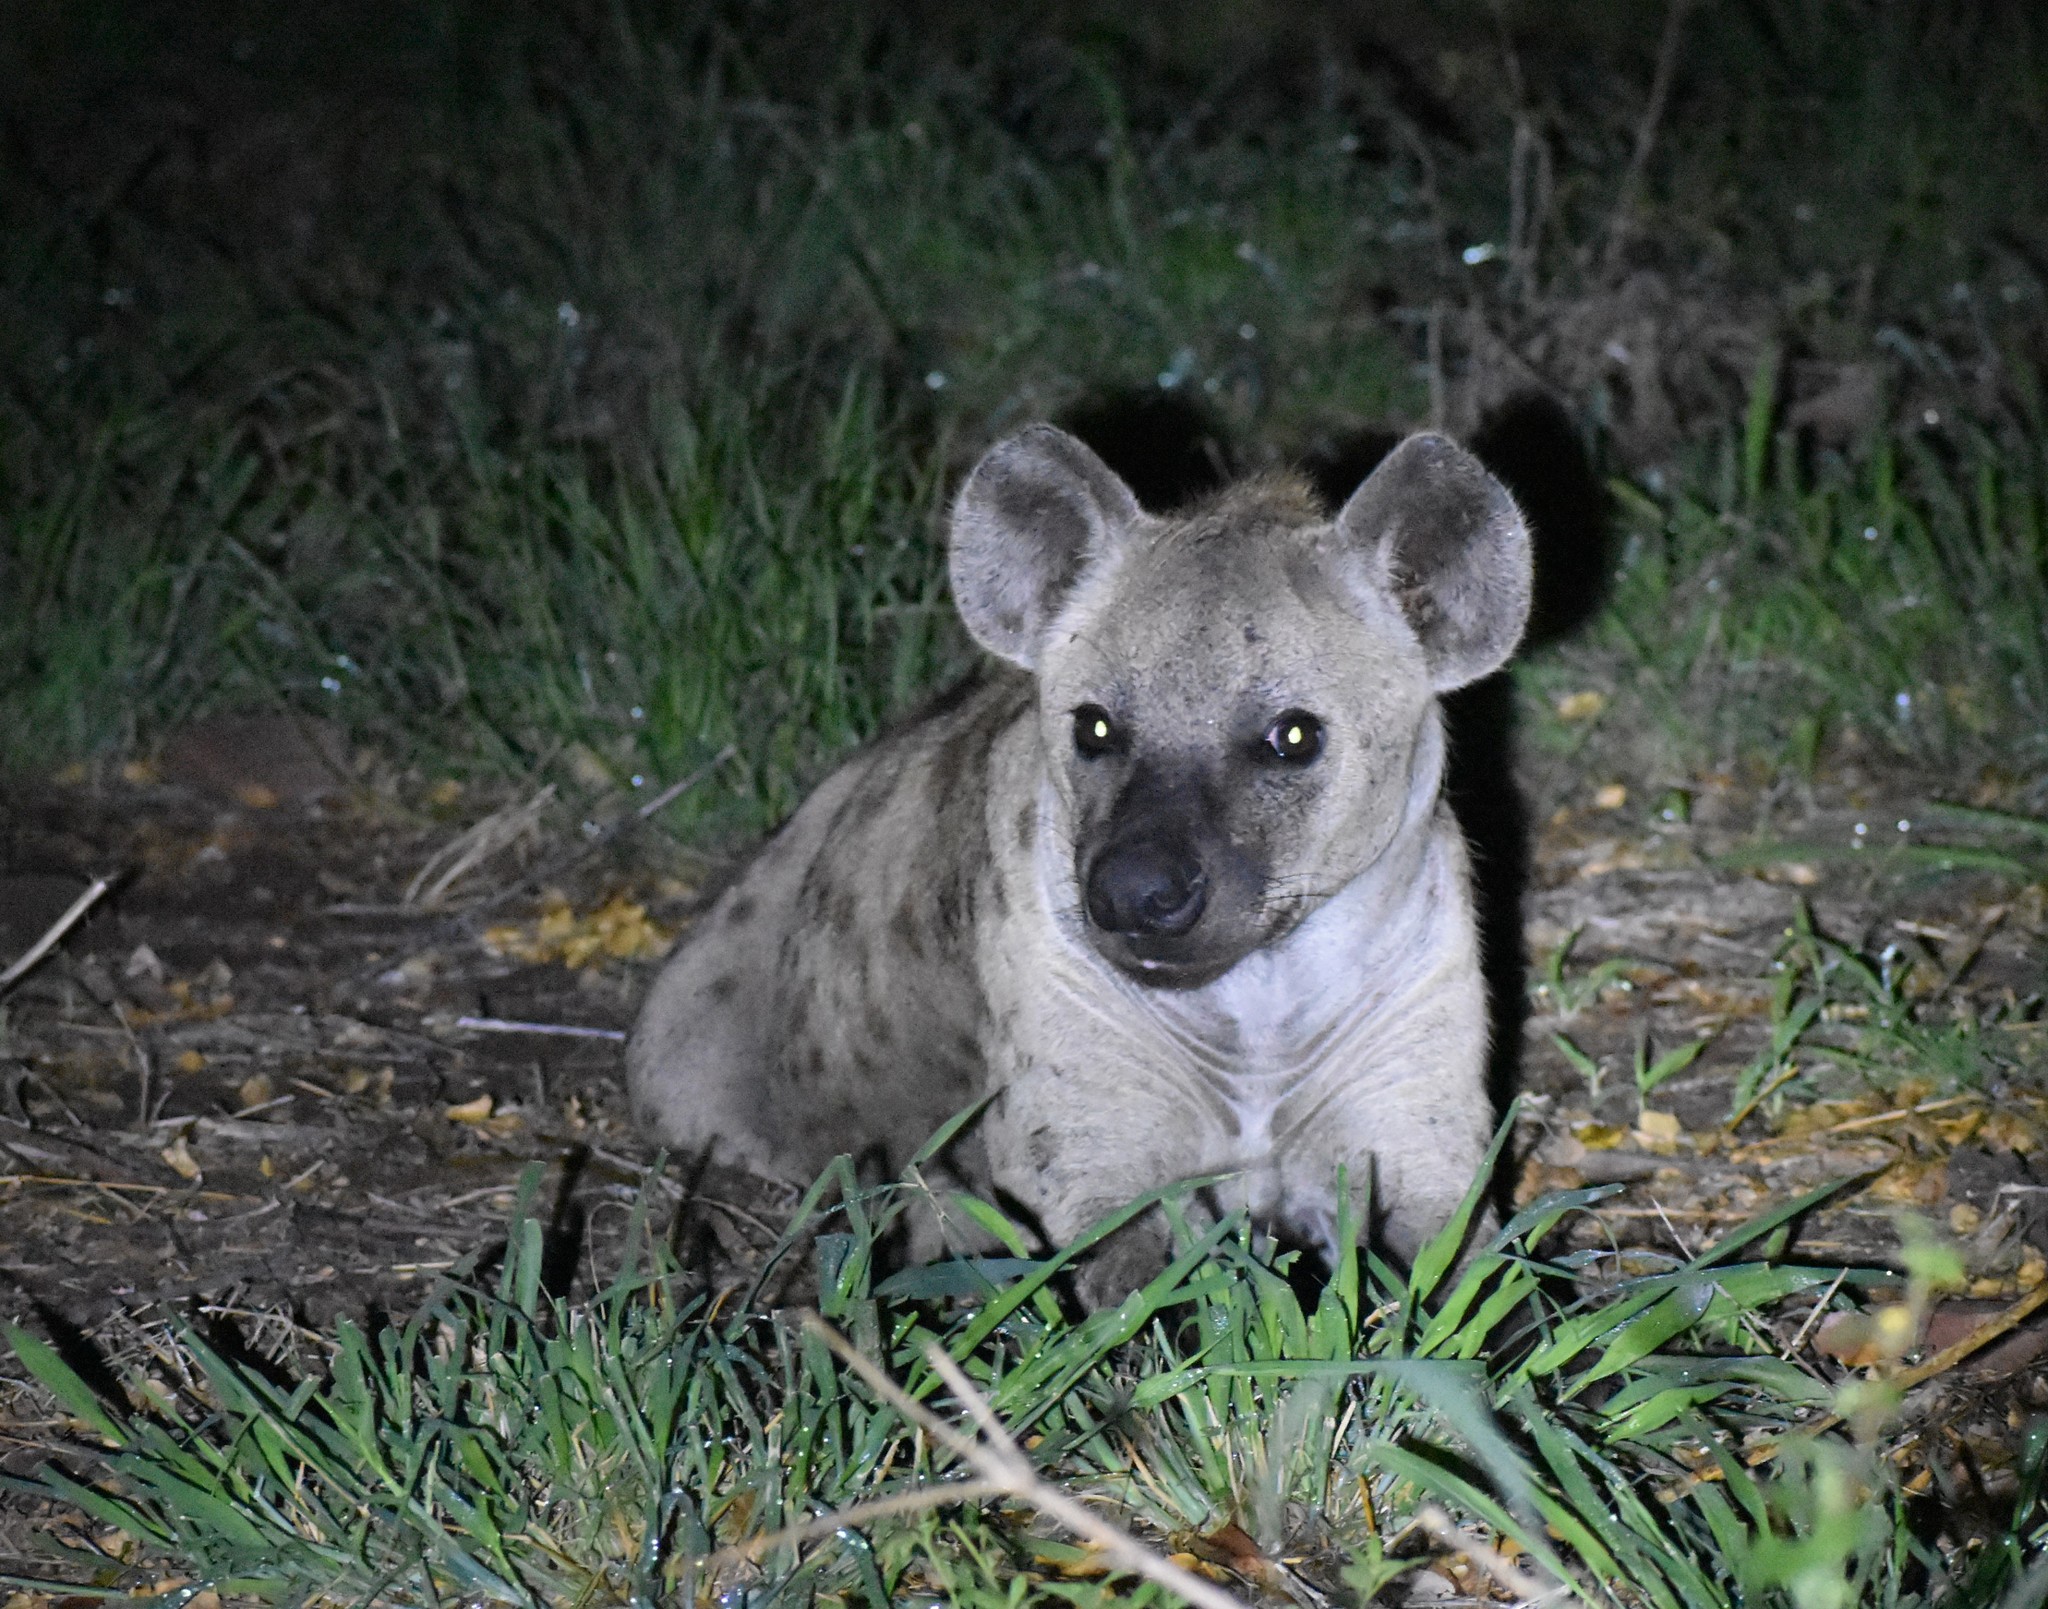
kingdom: Animalia
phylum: Chordata
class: Mammalia
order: Carnivora
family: Hyaenidae
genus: Crocuta
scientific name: Crocuta crocuta
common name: Spotted hyaena
